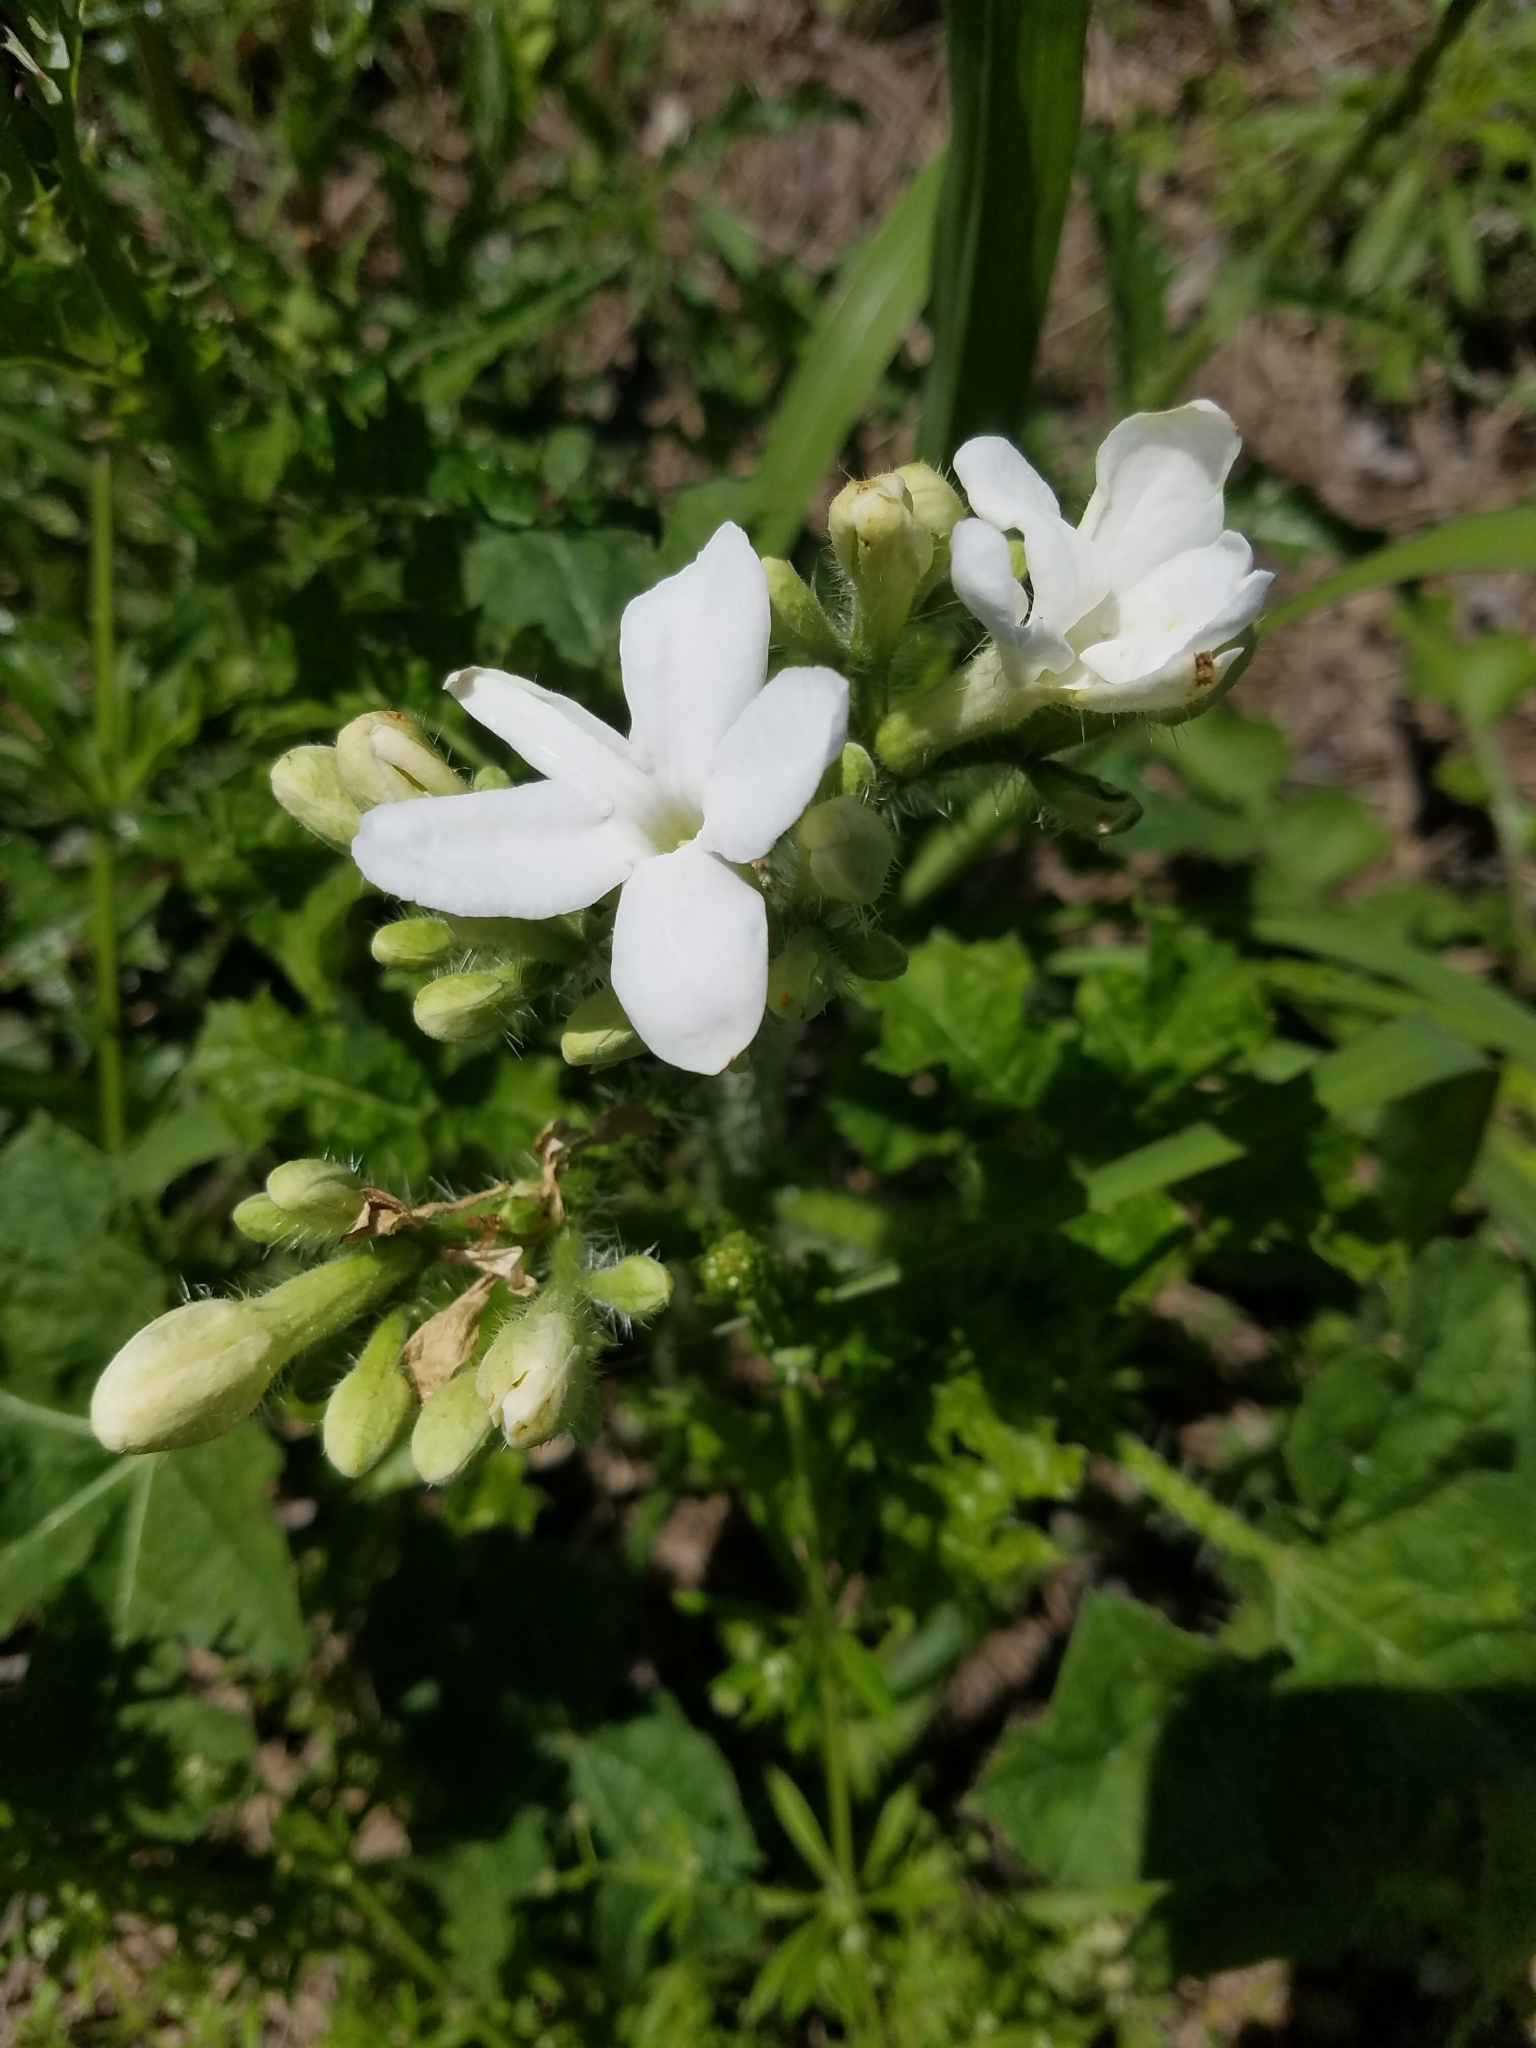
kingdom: Plantae
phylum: Tracheophyta
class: Magnoliopsida
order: Malpighiales
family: Euphorbiaceae
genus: Cnidoscolus
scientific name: Cnidoscolus texanus
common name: Texas bull-nettle
